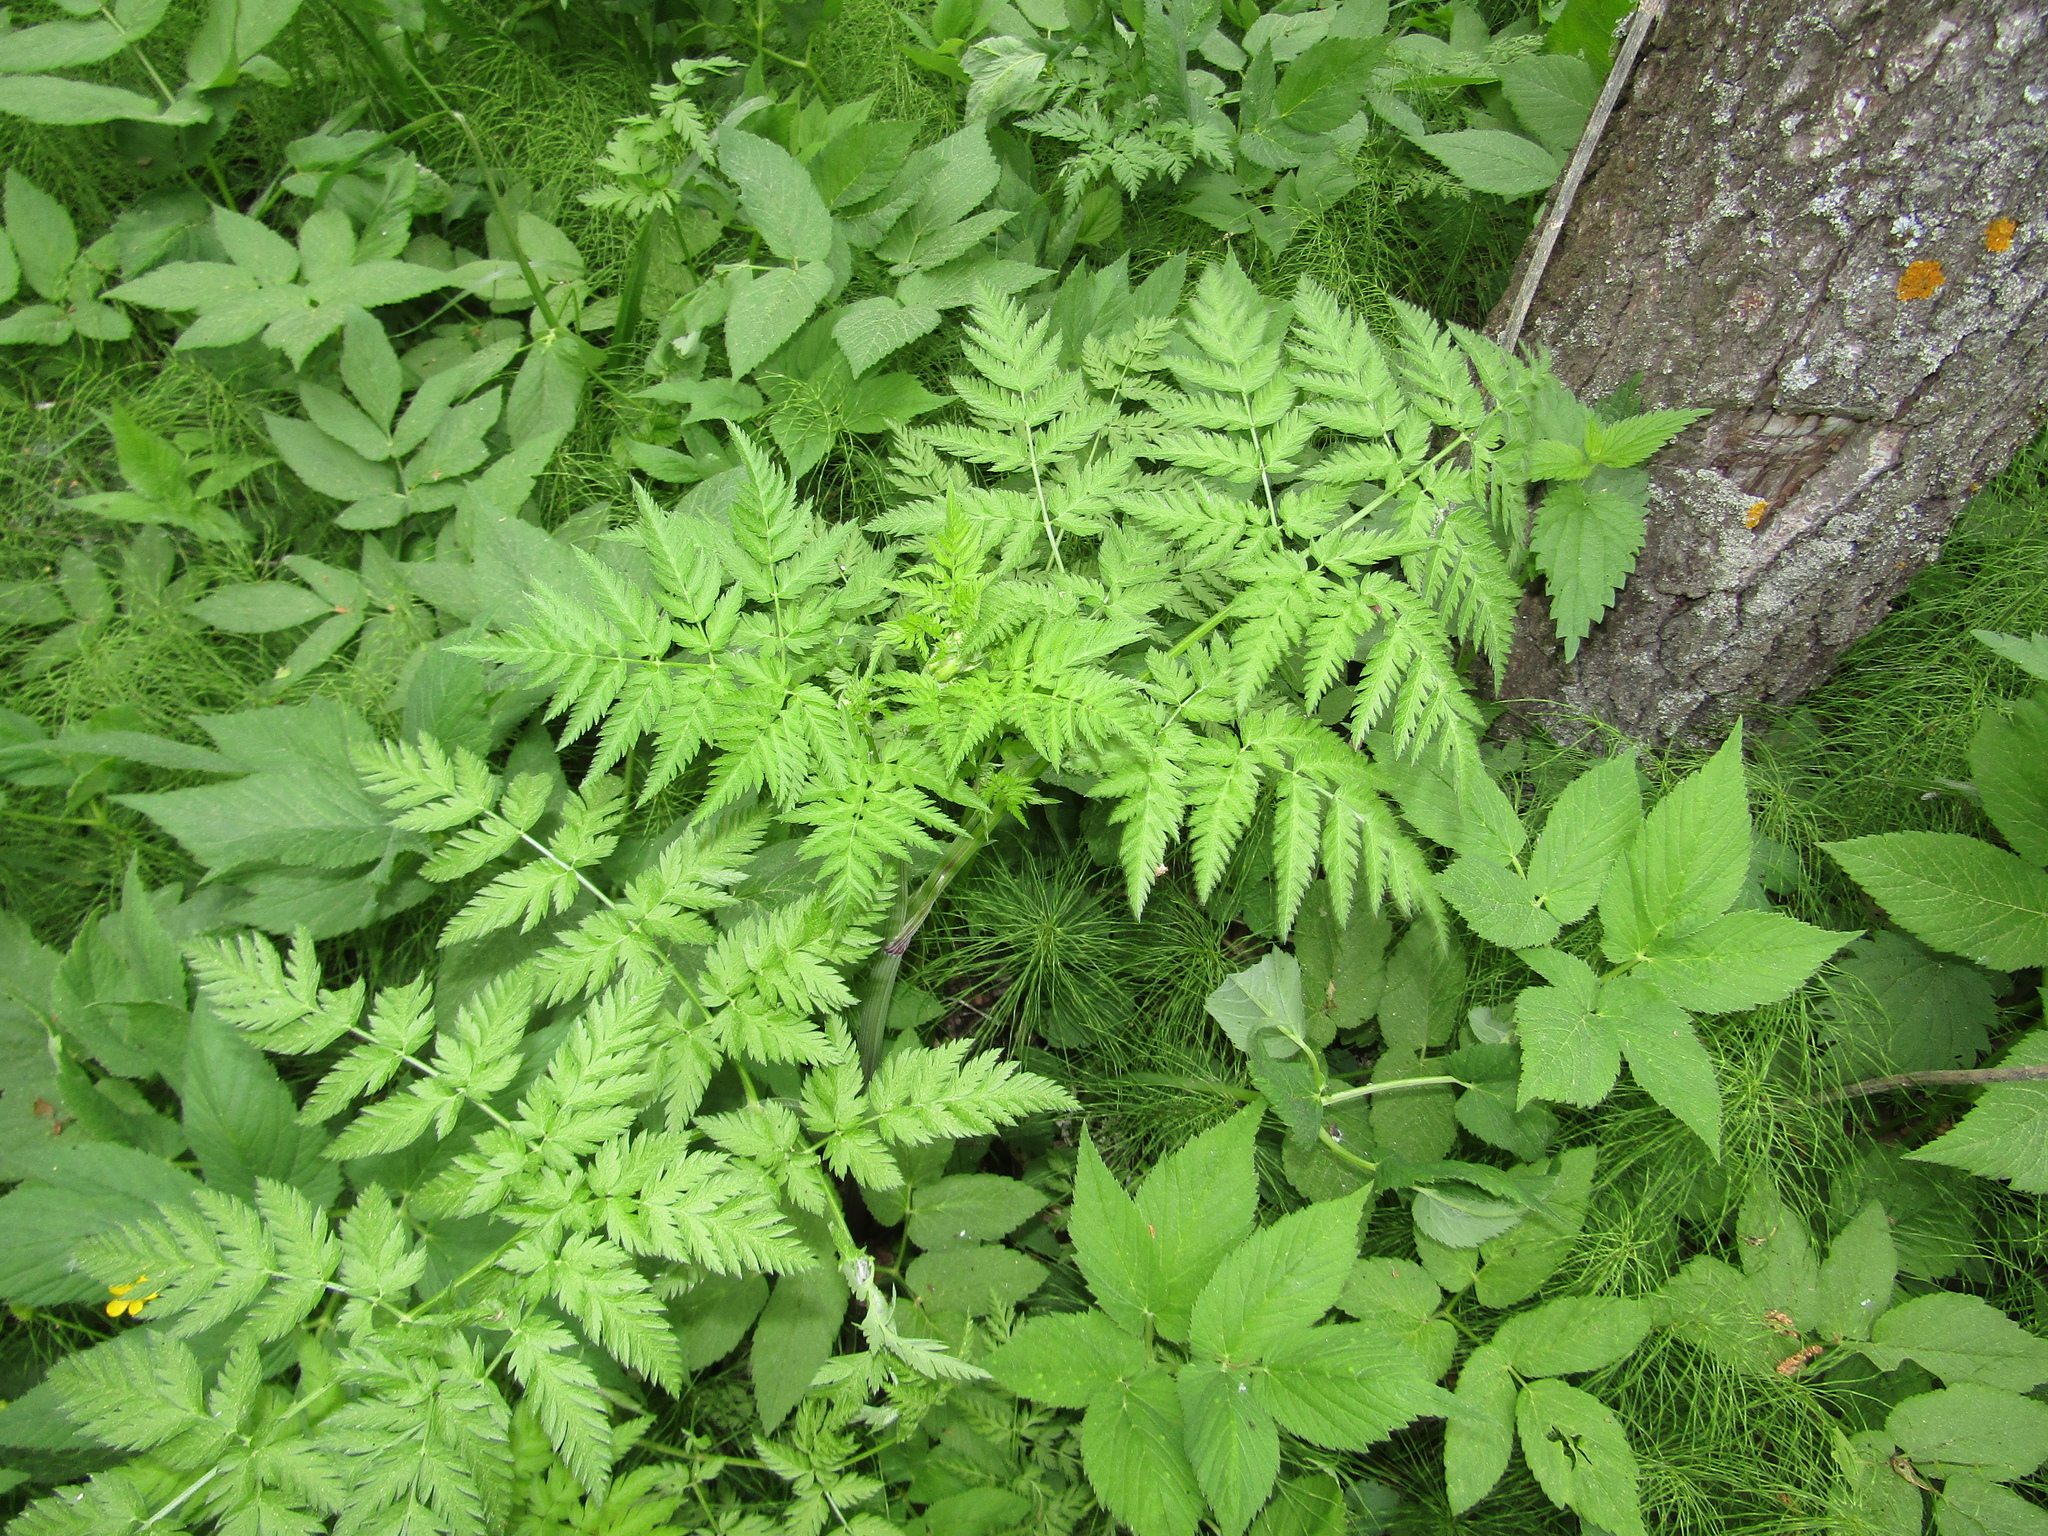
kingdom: Plantae
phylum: Tracheophyta
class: Magnoliopsida
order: Apiales
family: Apiaceae
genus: Anthriscus
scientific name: Anthriscus sylvestris
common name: Cow parsley
